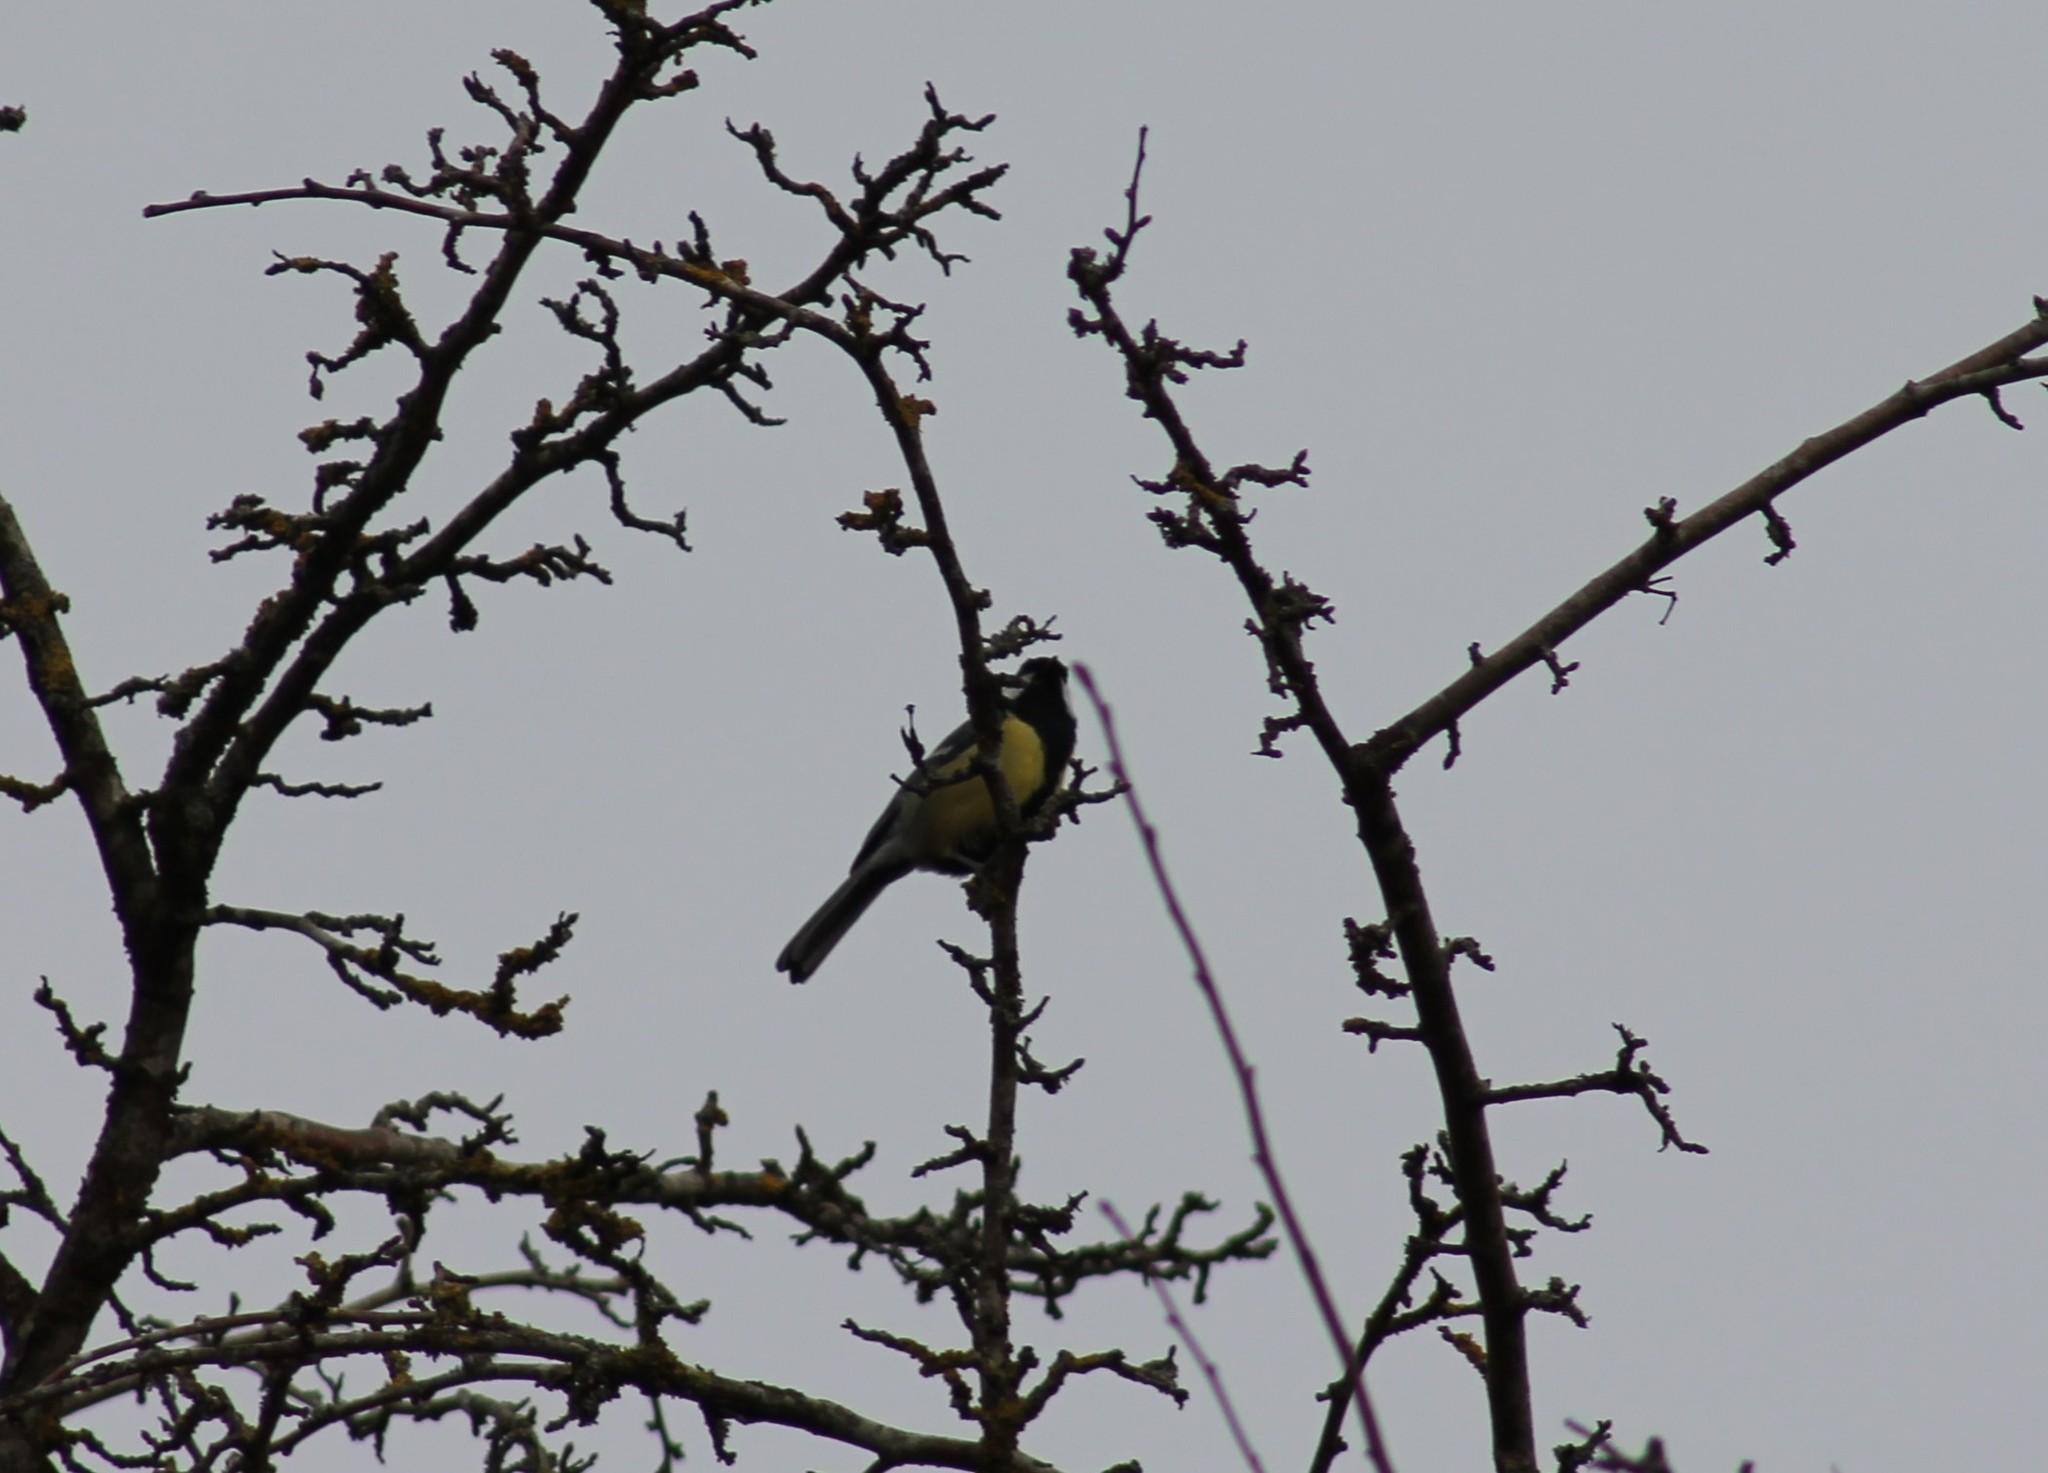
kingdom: Animalia
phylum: Chordata
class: Aves
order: Passeriformes
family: Paridae
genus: Parus
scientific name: Parus major
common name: Great tit
